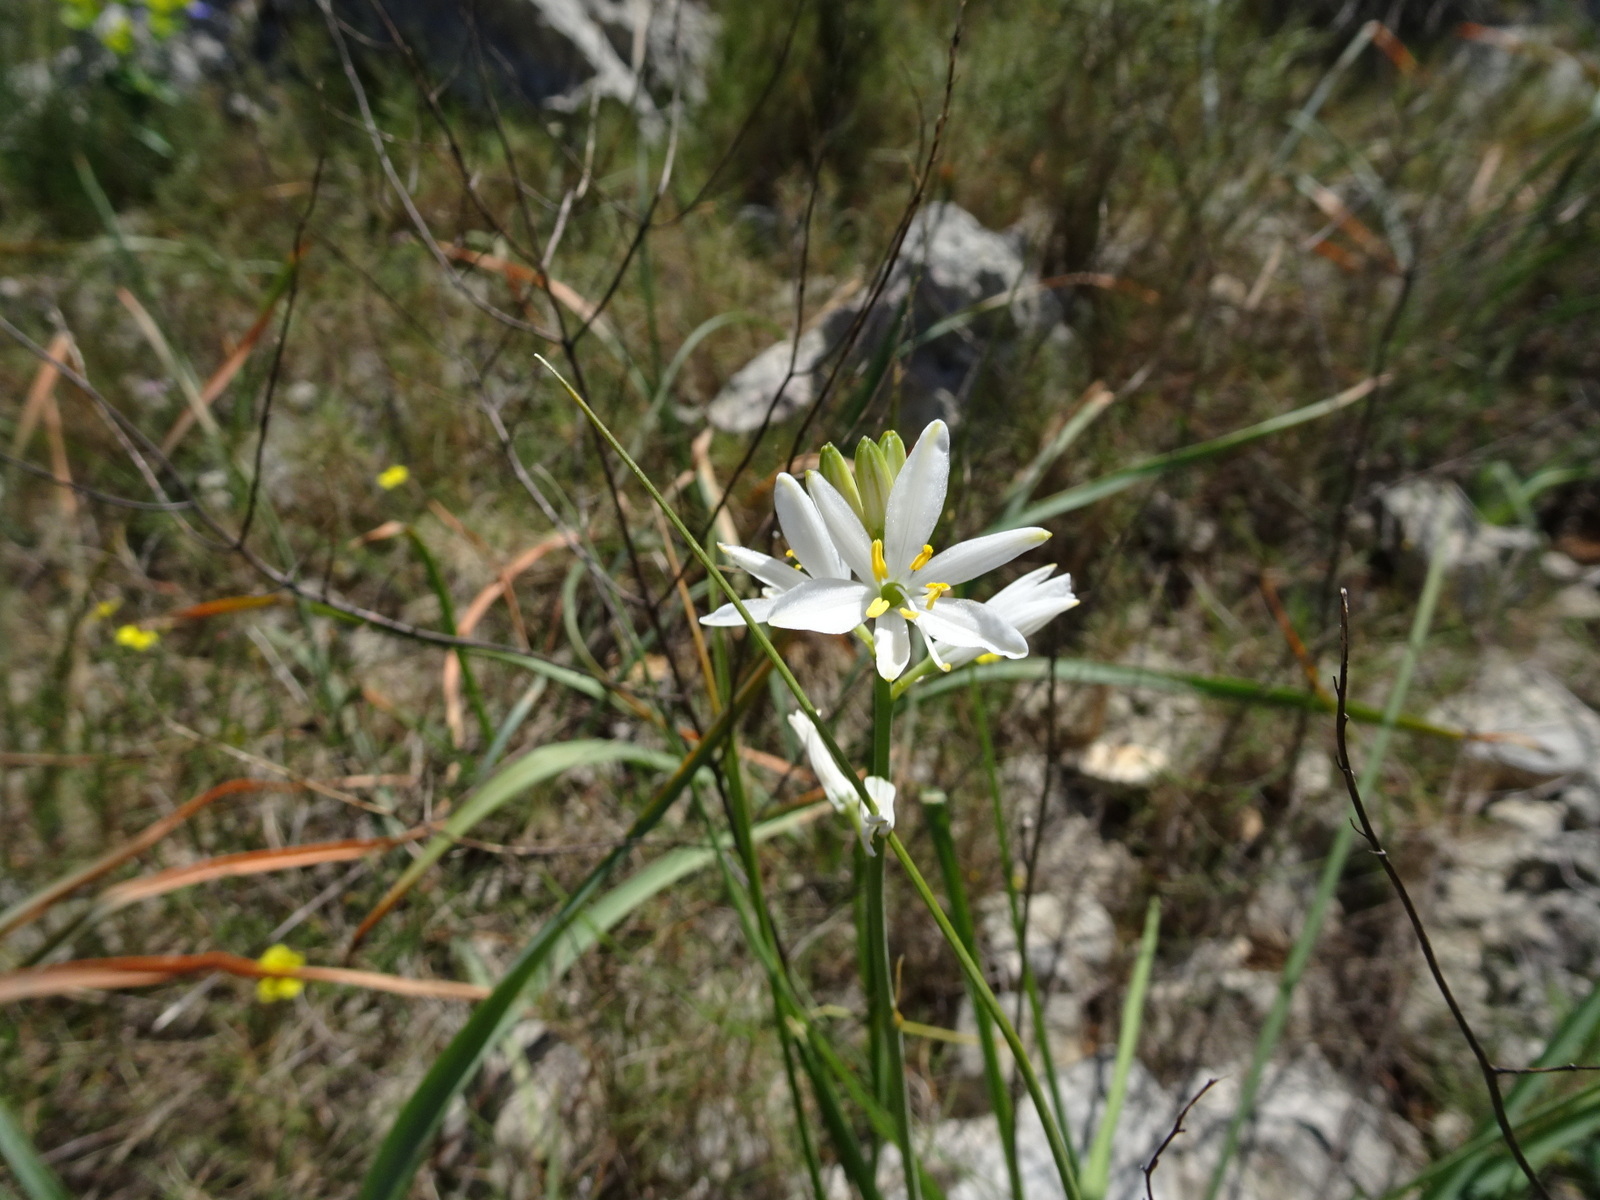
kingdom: Plantae
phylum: Tracheophyta
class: Liliopsida
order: Asparagales
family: Asparagaceae
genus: Anthericum
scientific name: Anthericum liliago
